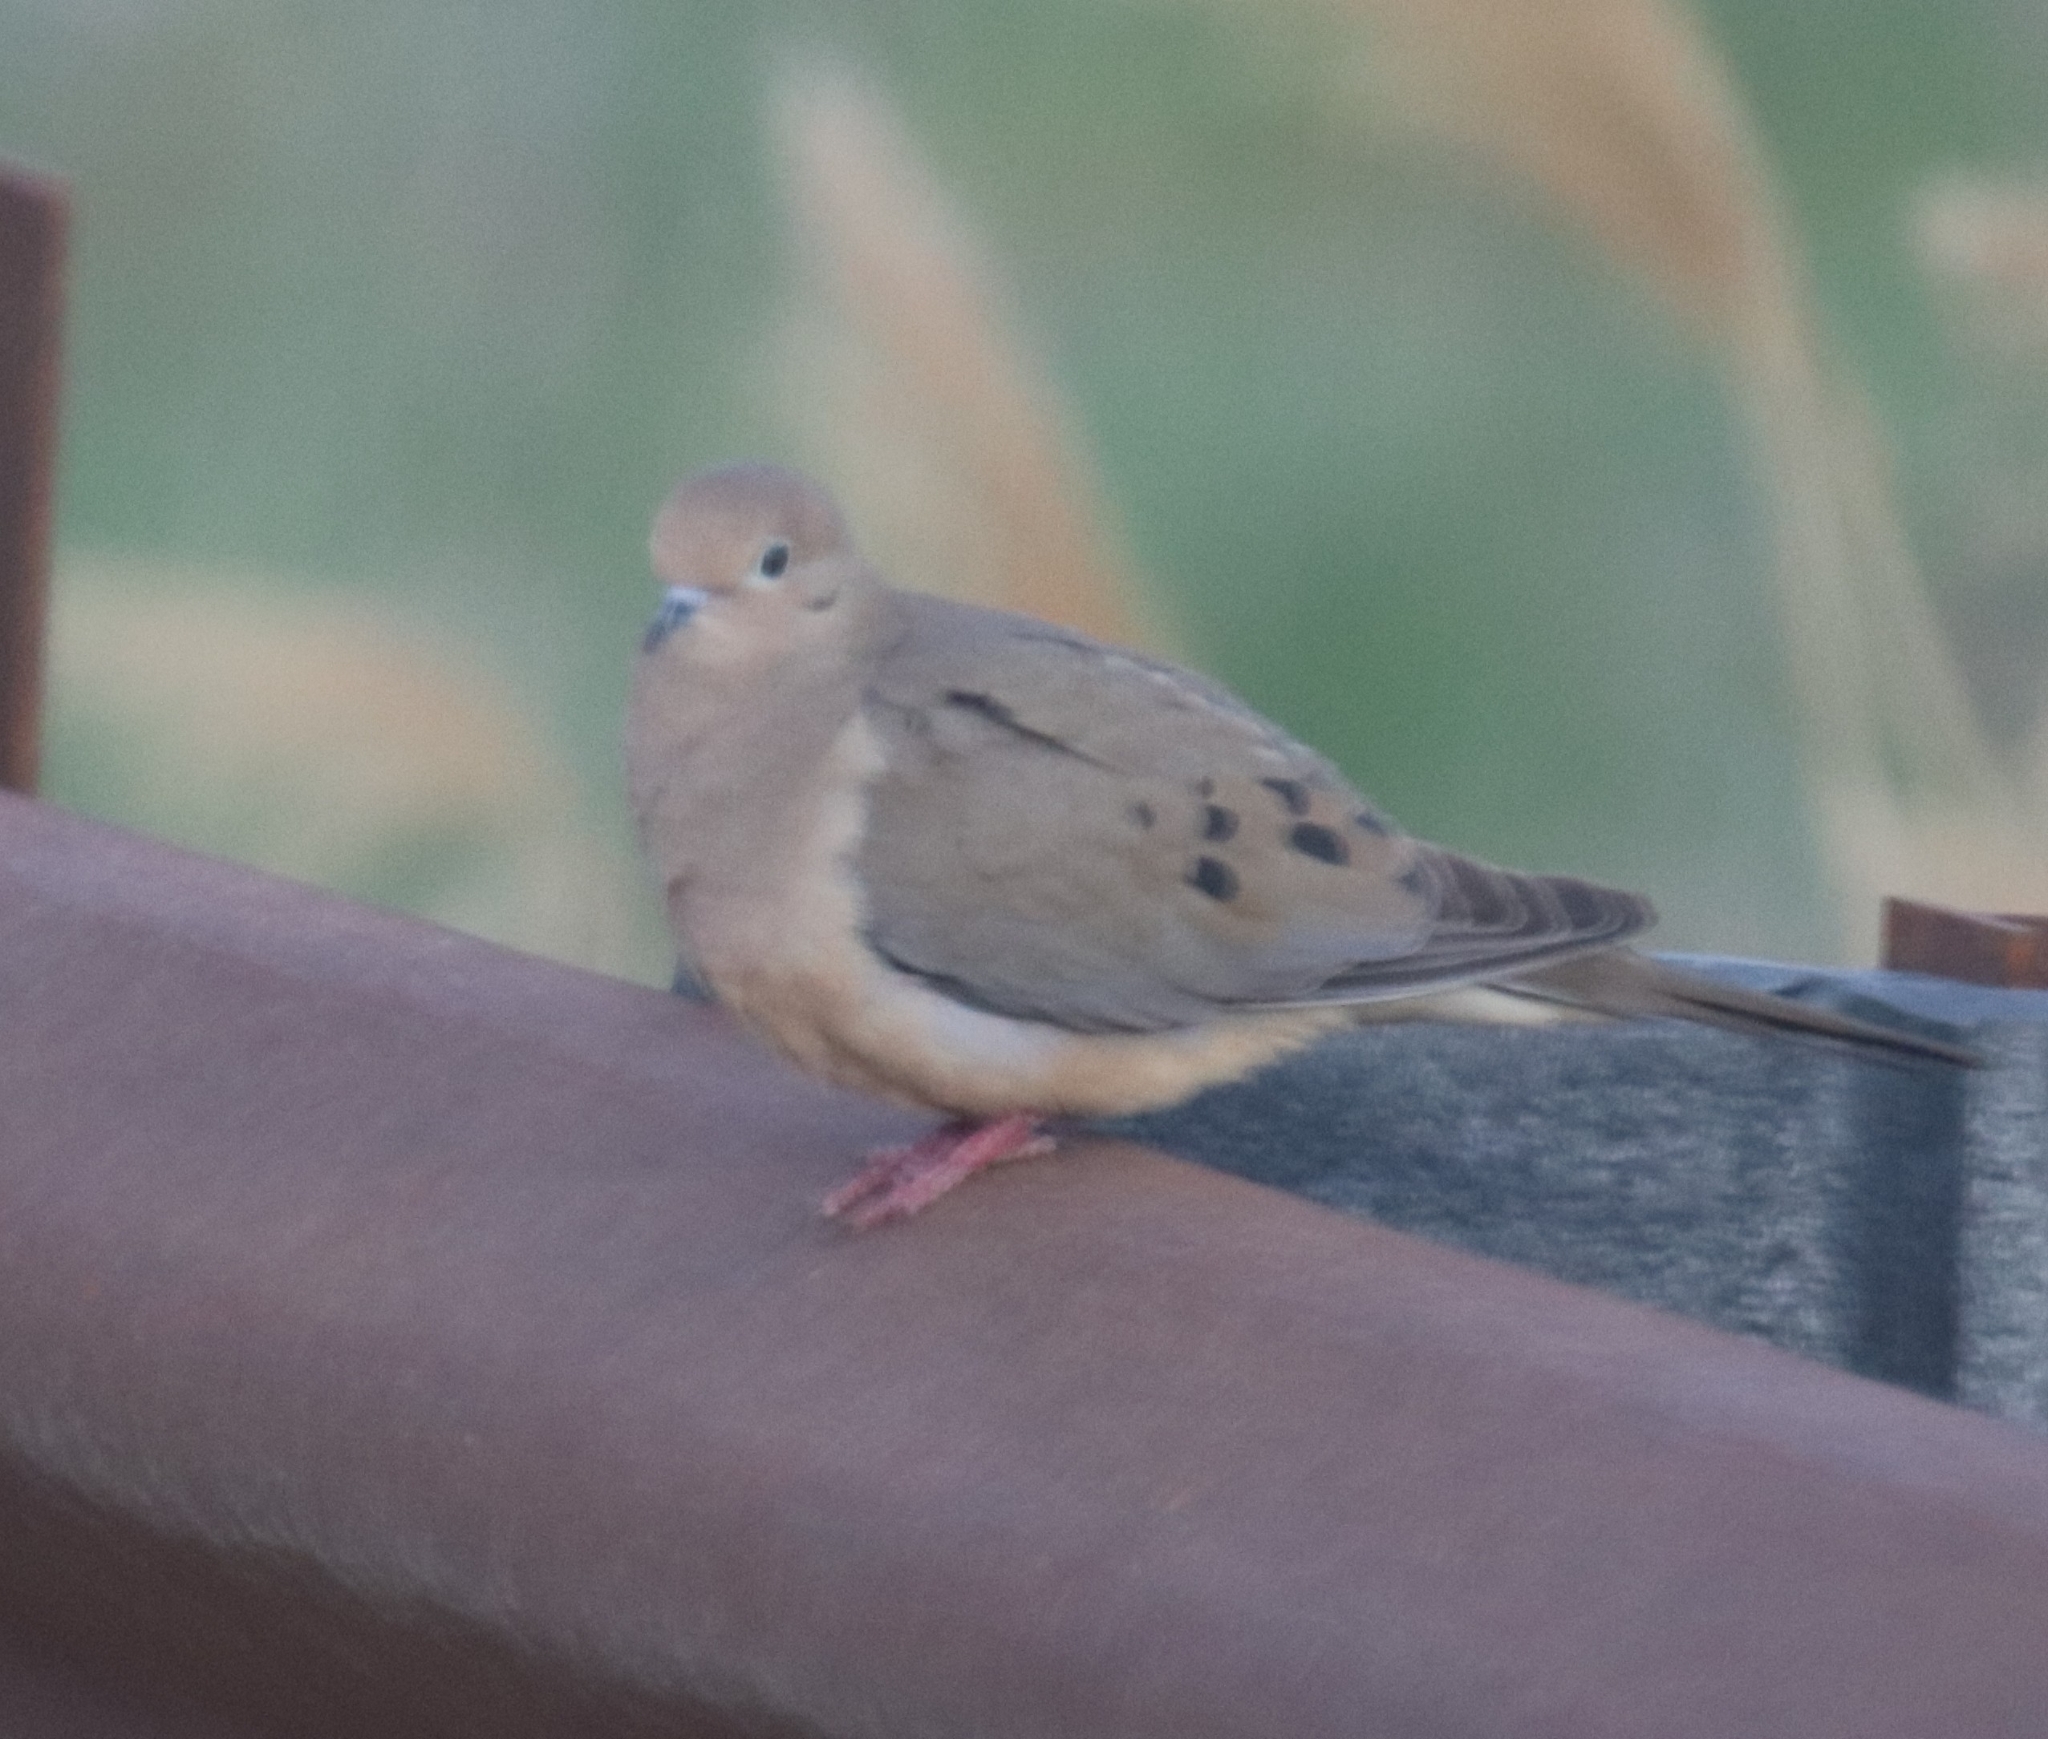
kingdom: Animalia
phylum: Chordata
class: Aves
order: Columbiformes
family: Columbidae
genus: Zenaida
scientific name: Zenaida macroura
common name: Mourning dove
